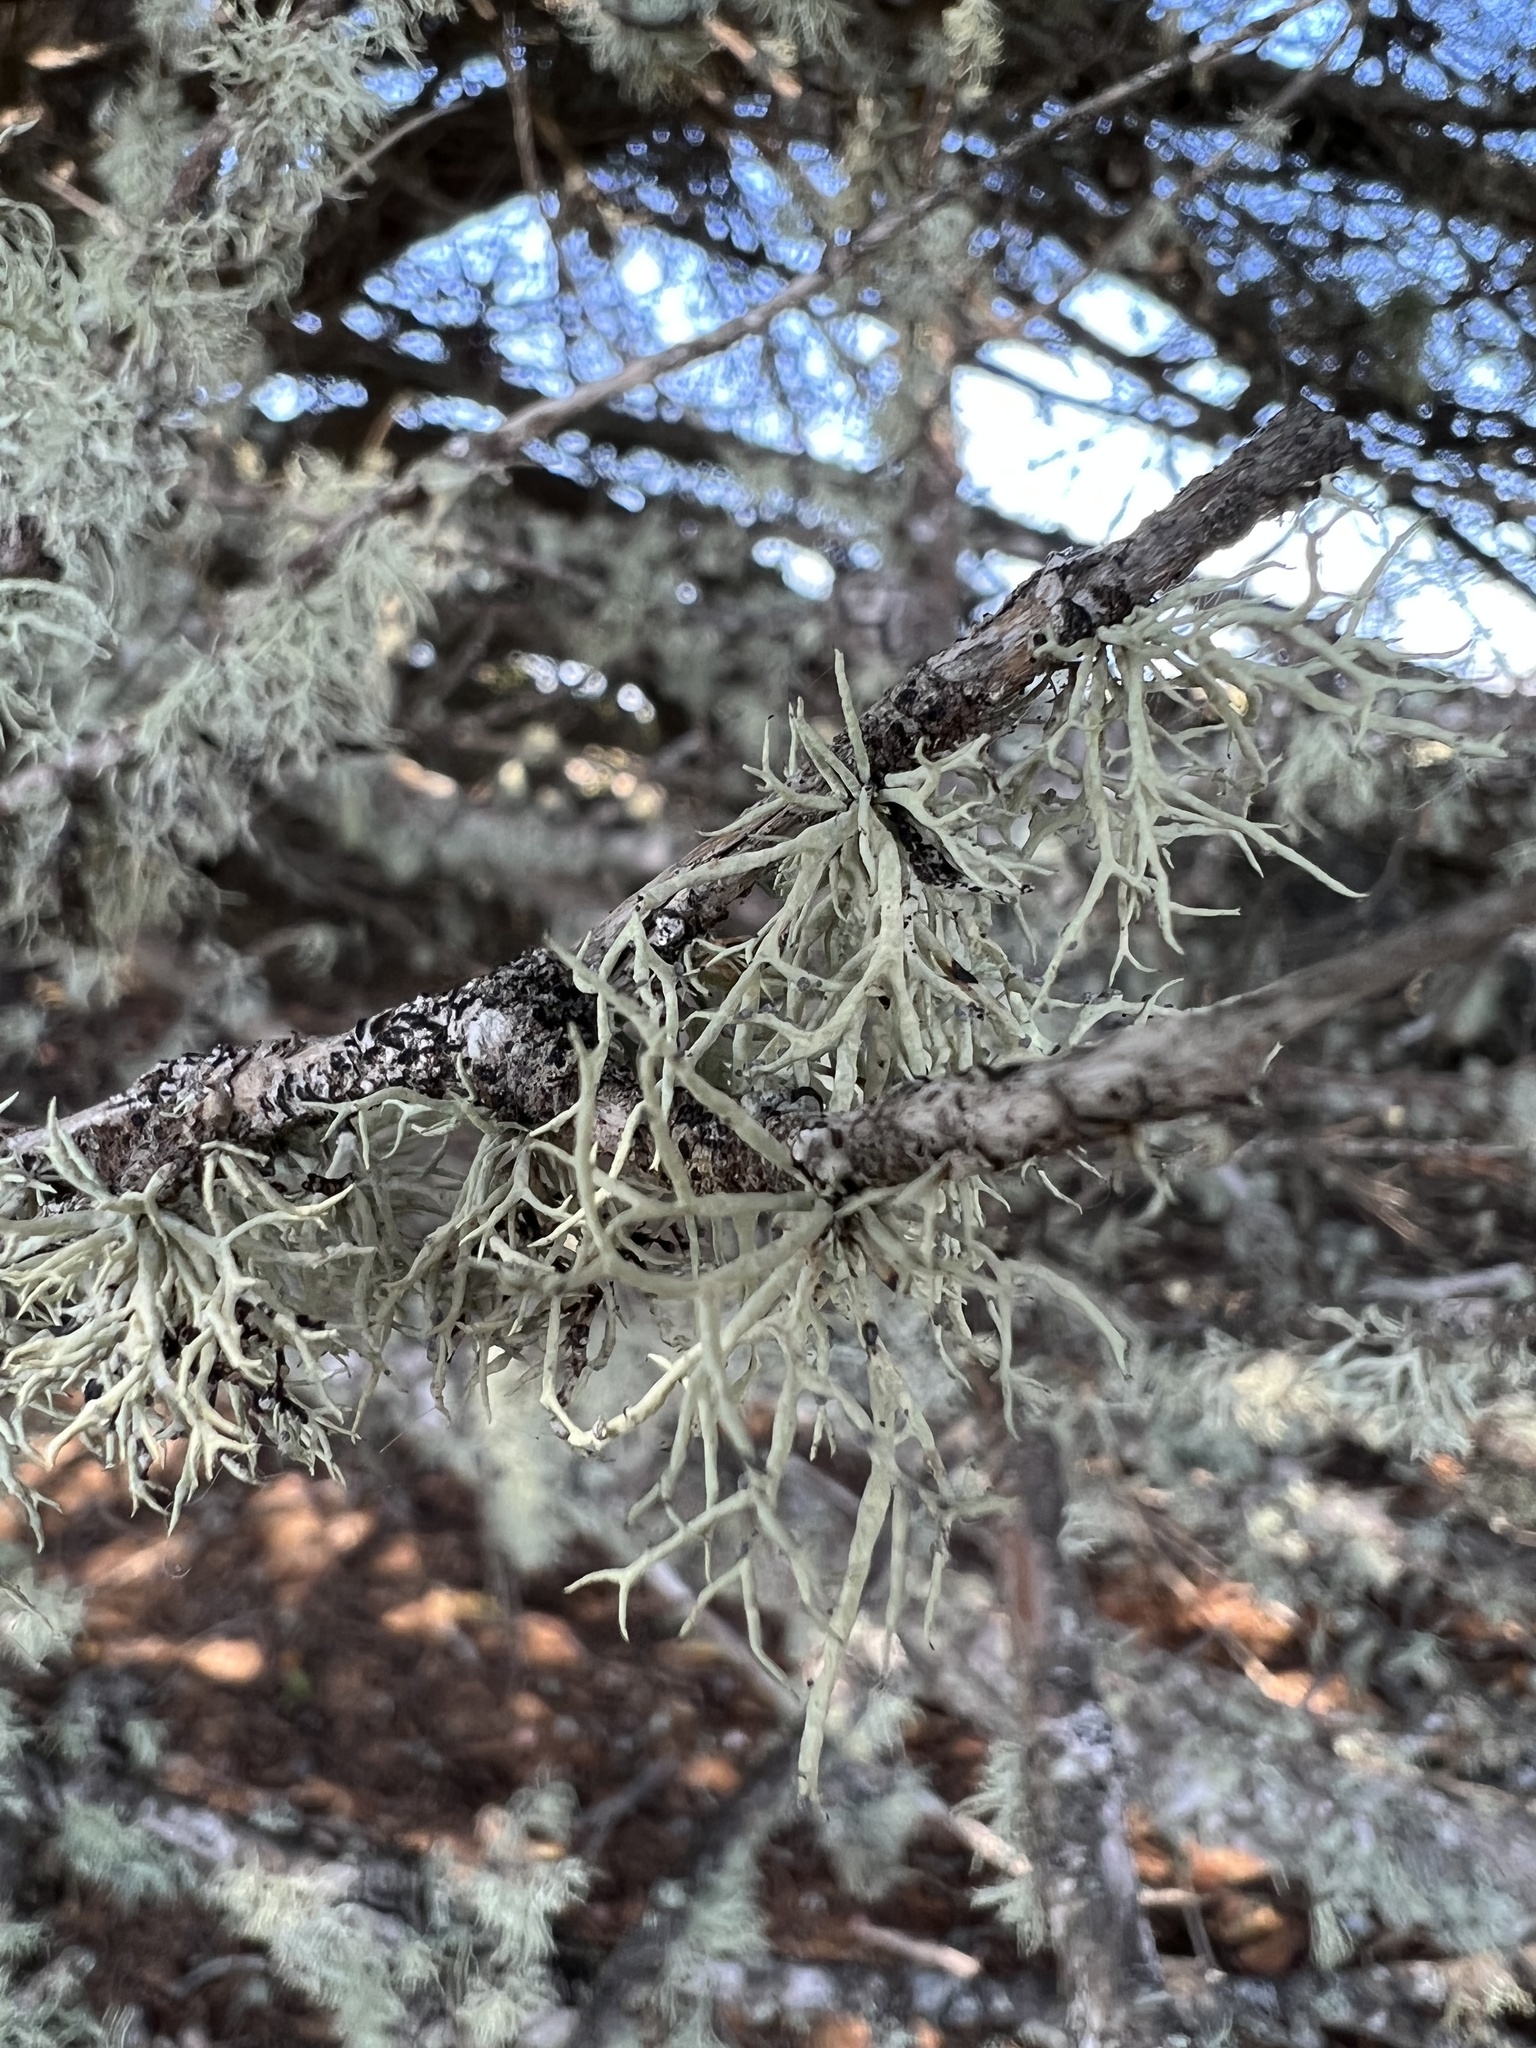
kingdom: Fungi
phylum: Ascomycota
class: Lecanoromycetes
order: Lecanorales
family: Ramalinaceae
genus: Niebla
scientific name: Niebla cephalota
